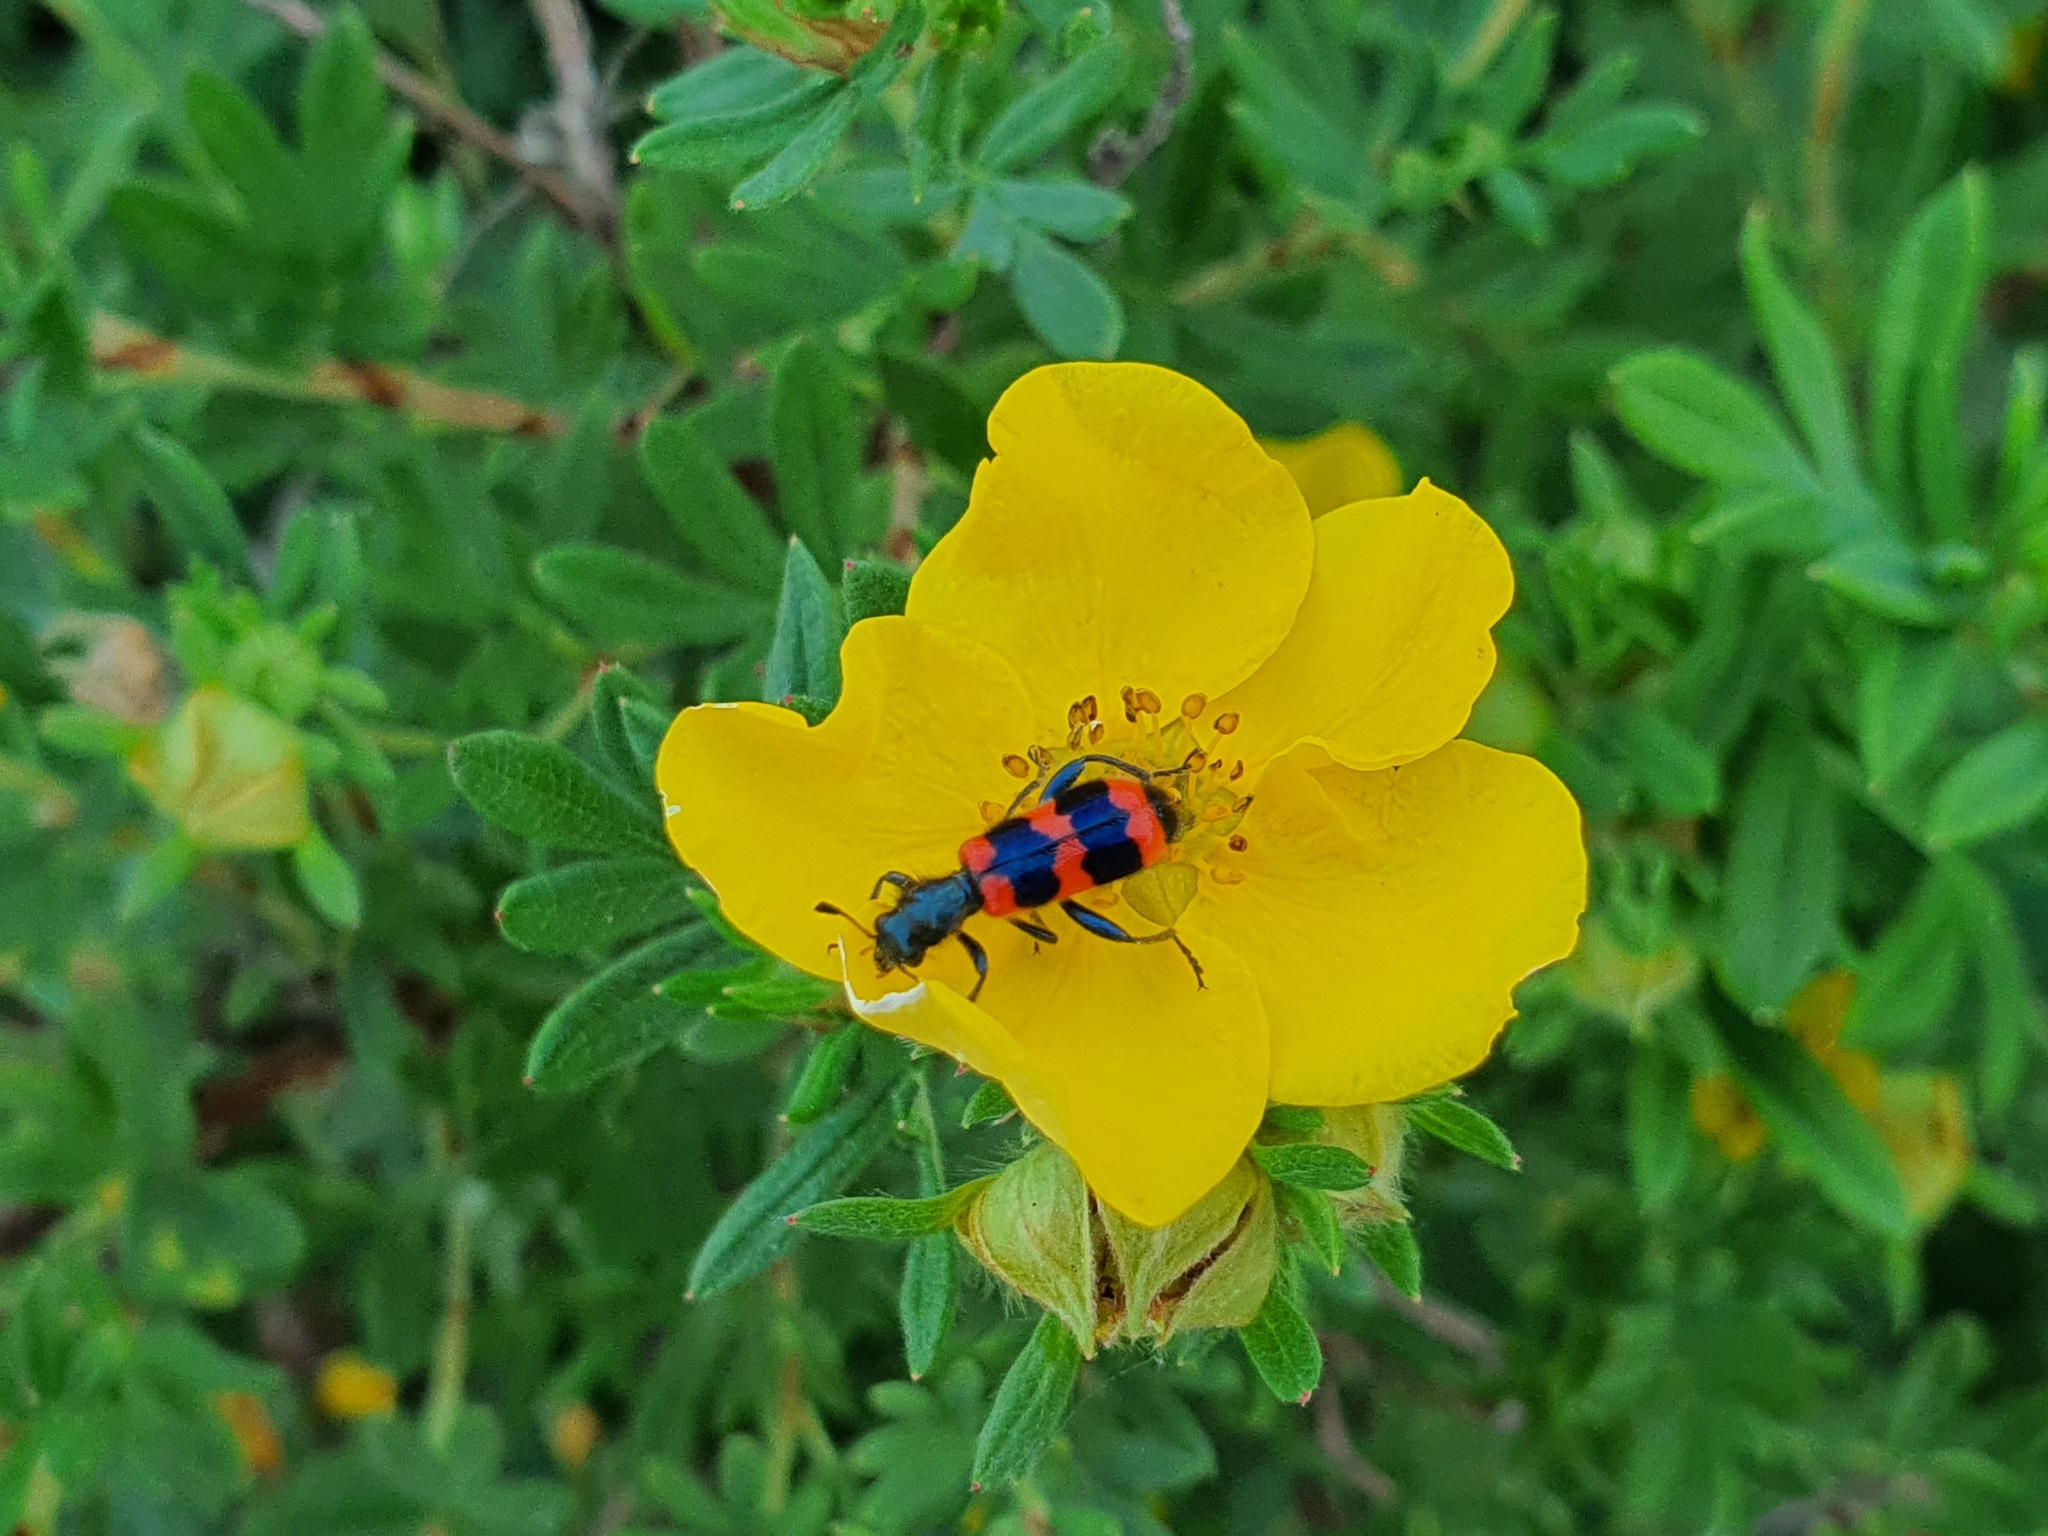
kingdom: Animalia
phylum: Arthropoda
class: Insecta
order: Coleoptera
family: Cleridae
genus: Trichodes
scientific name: Trichodes apiarius
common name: Bee-eating beetle
